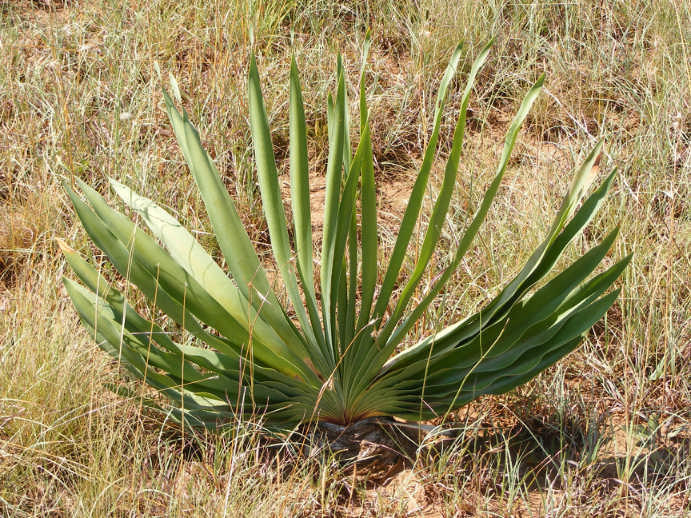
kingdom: Plantae
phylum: Tracheophyta
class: Liliopsida
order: Asparagales
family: Amaryllidaceae
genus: Boophone
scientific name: Boophone disticha
